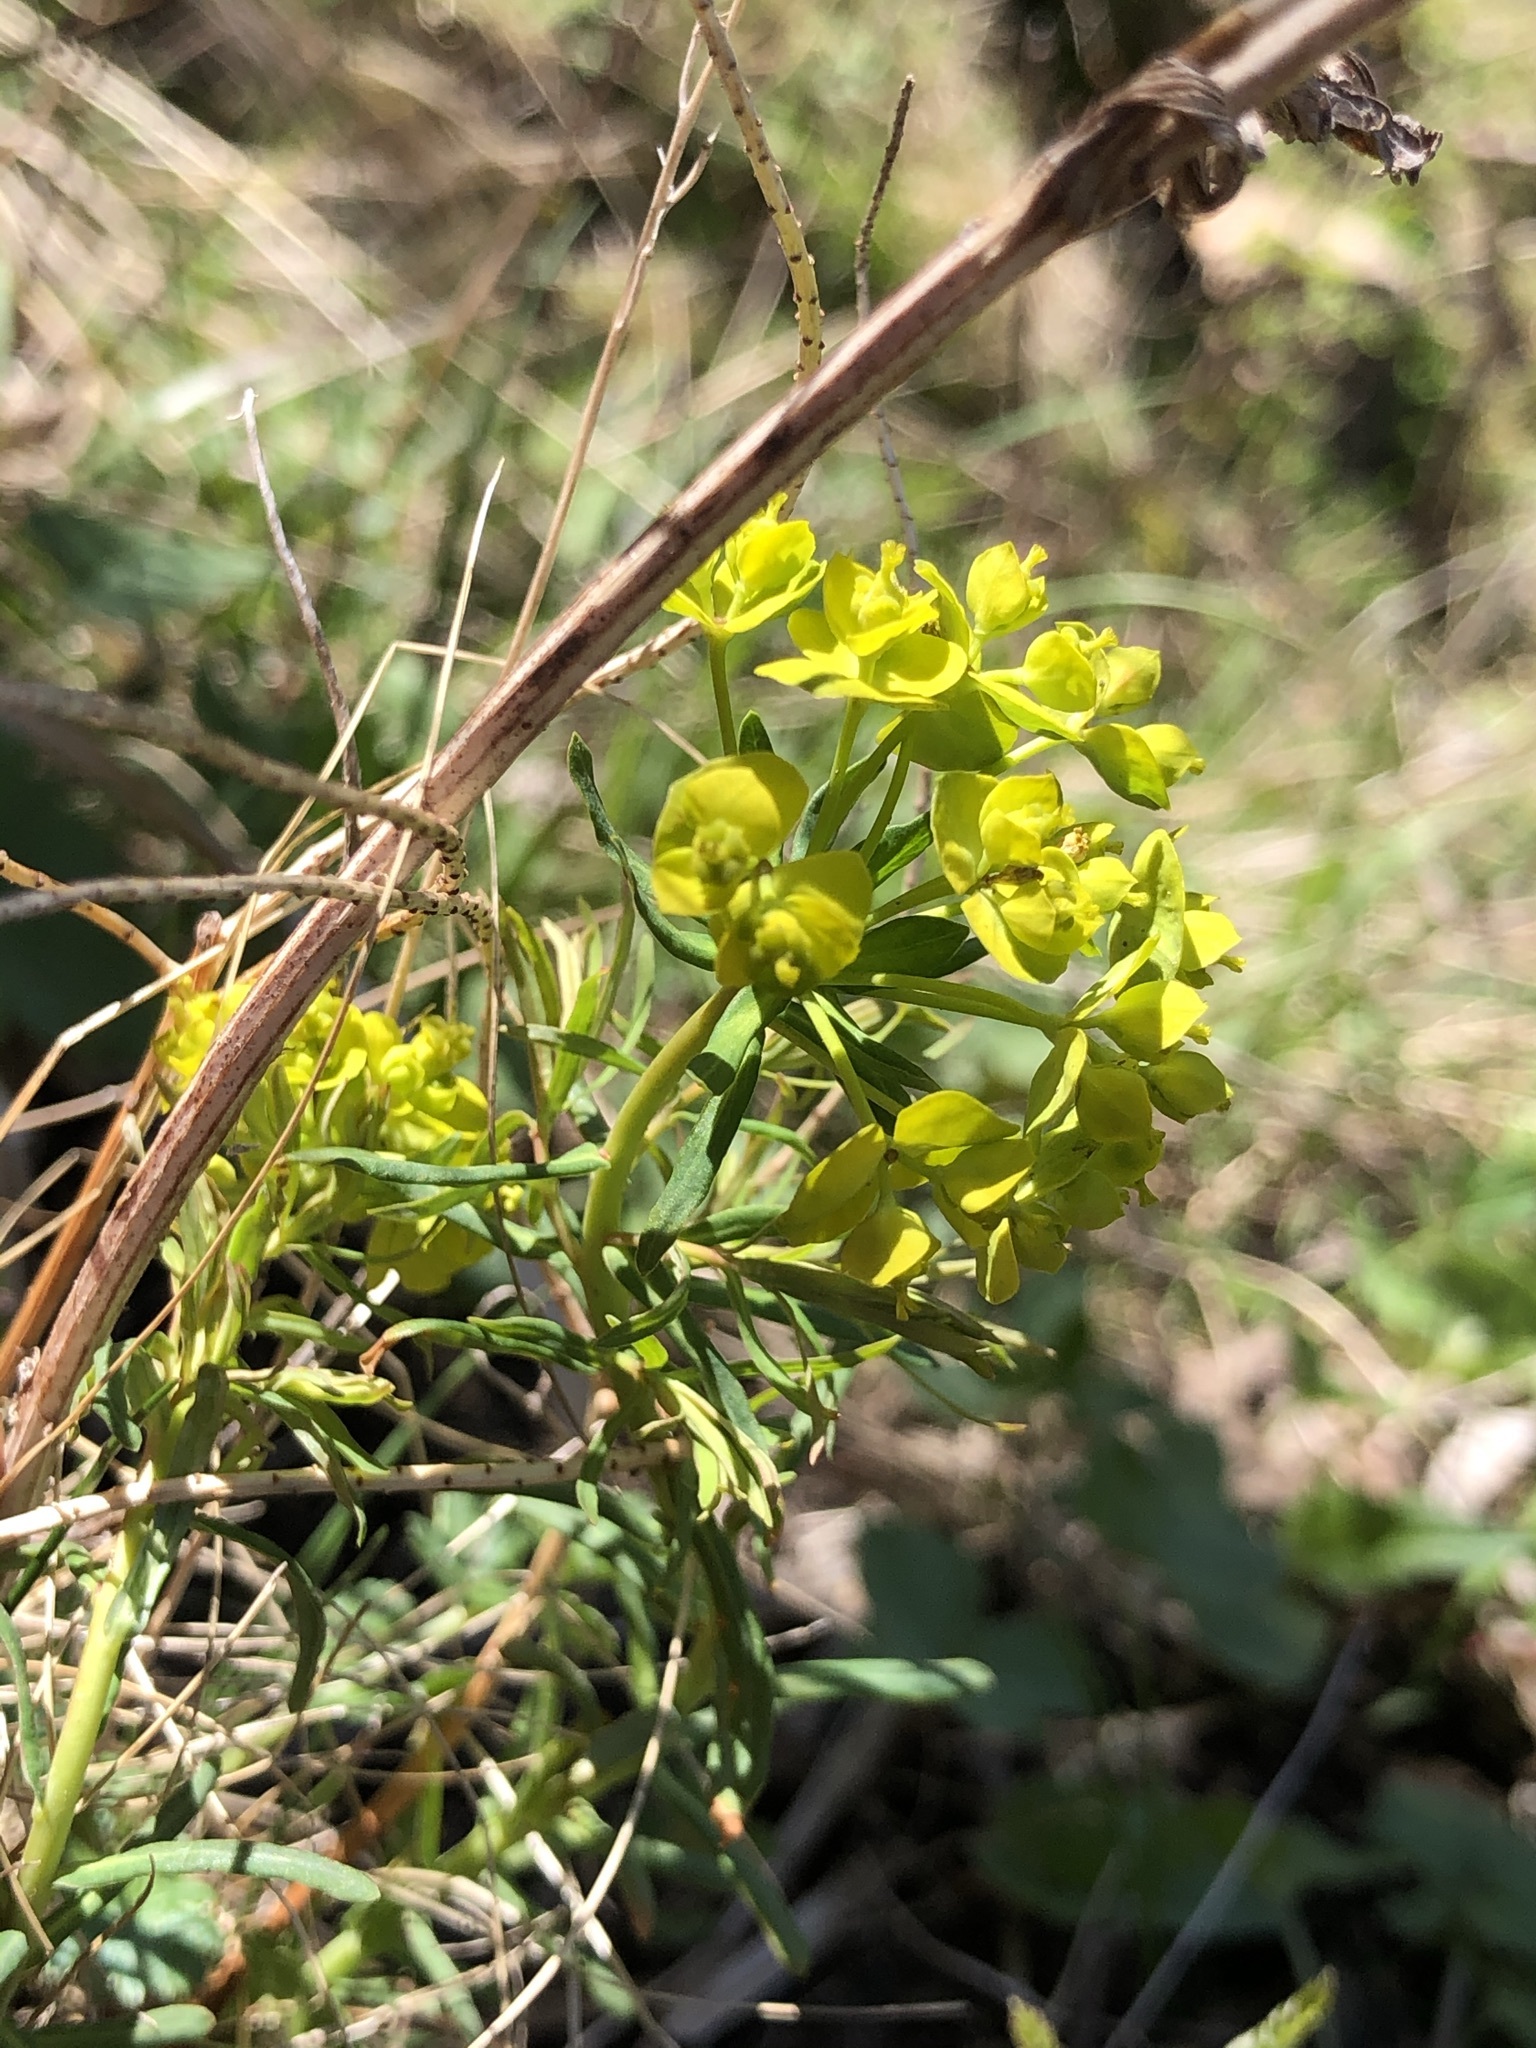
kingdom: Plantae
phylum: Tracheophyta
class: Magnoliopsida
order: Malpighiales
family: Euphorbiaceae
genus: Euphorbia
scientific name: Euphorbia cyparissias
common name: Cypress spurge
